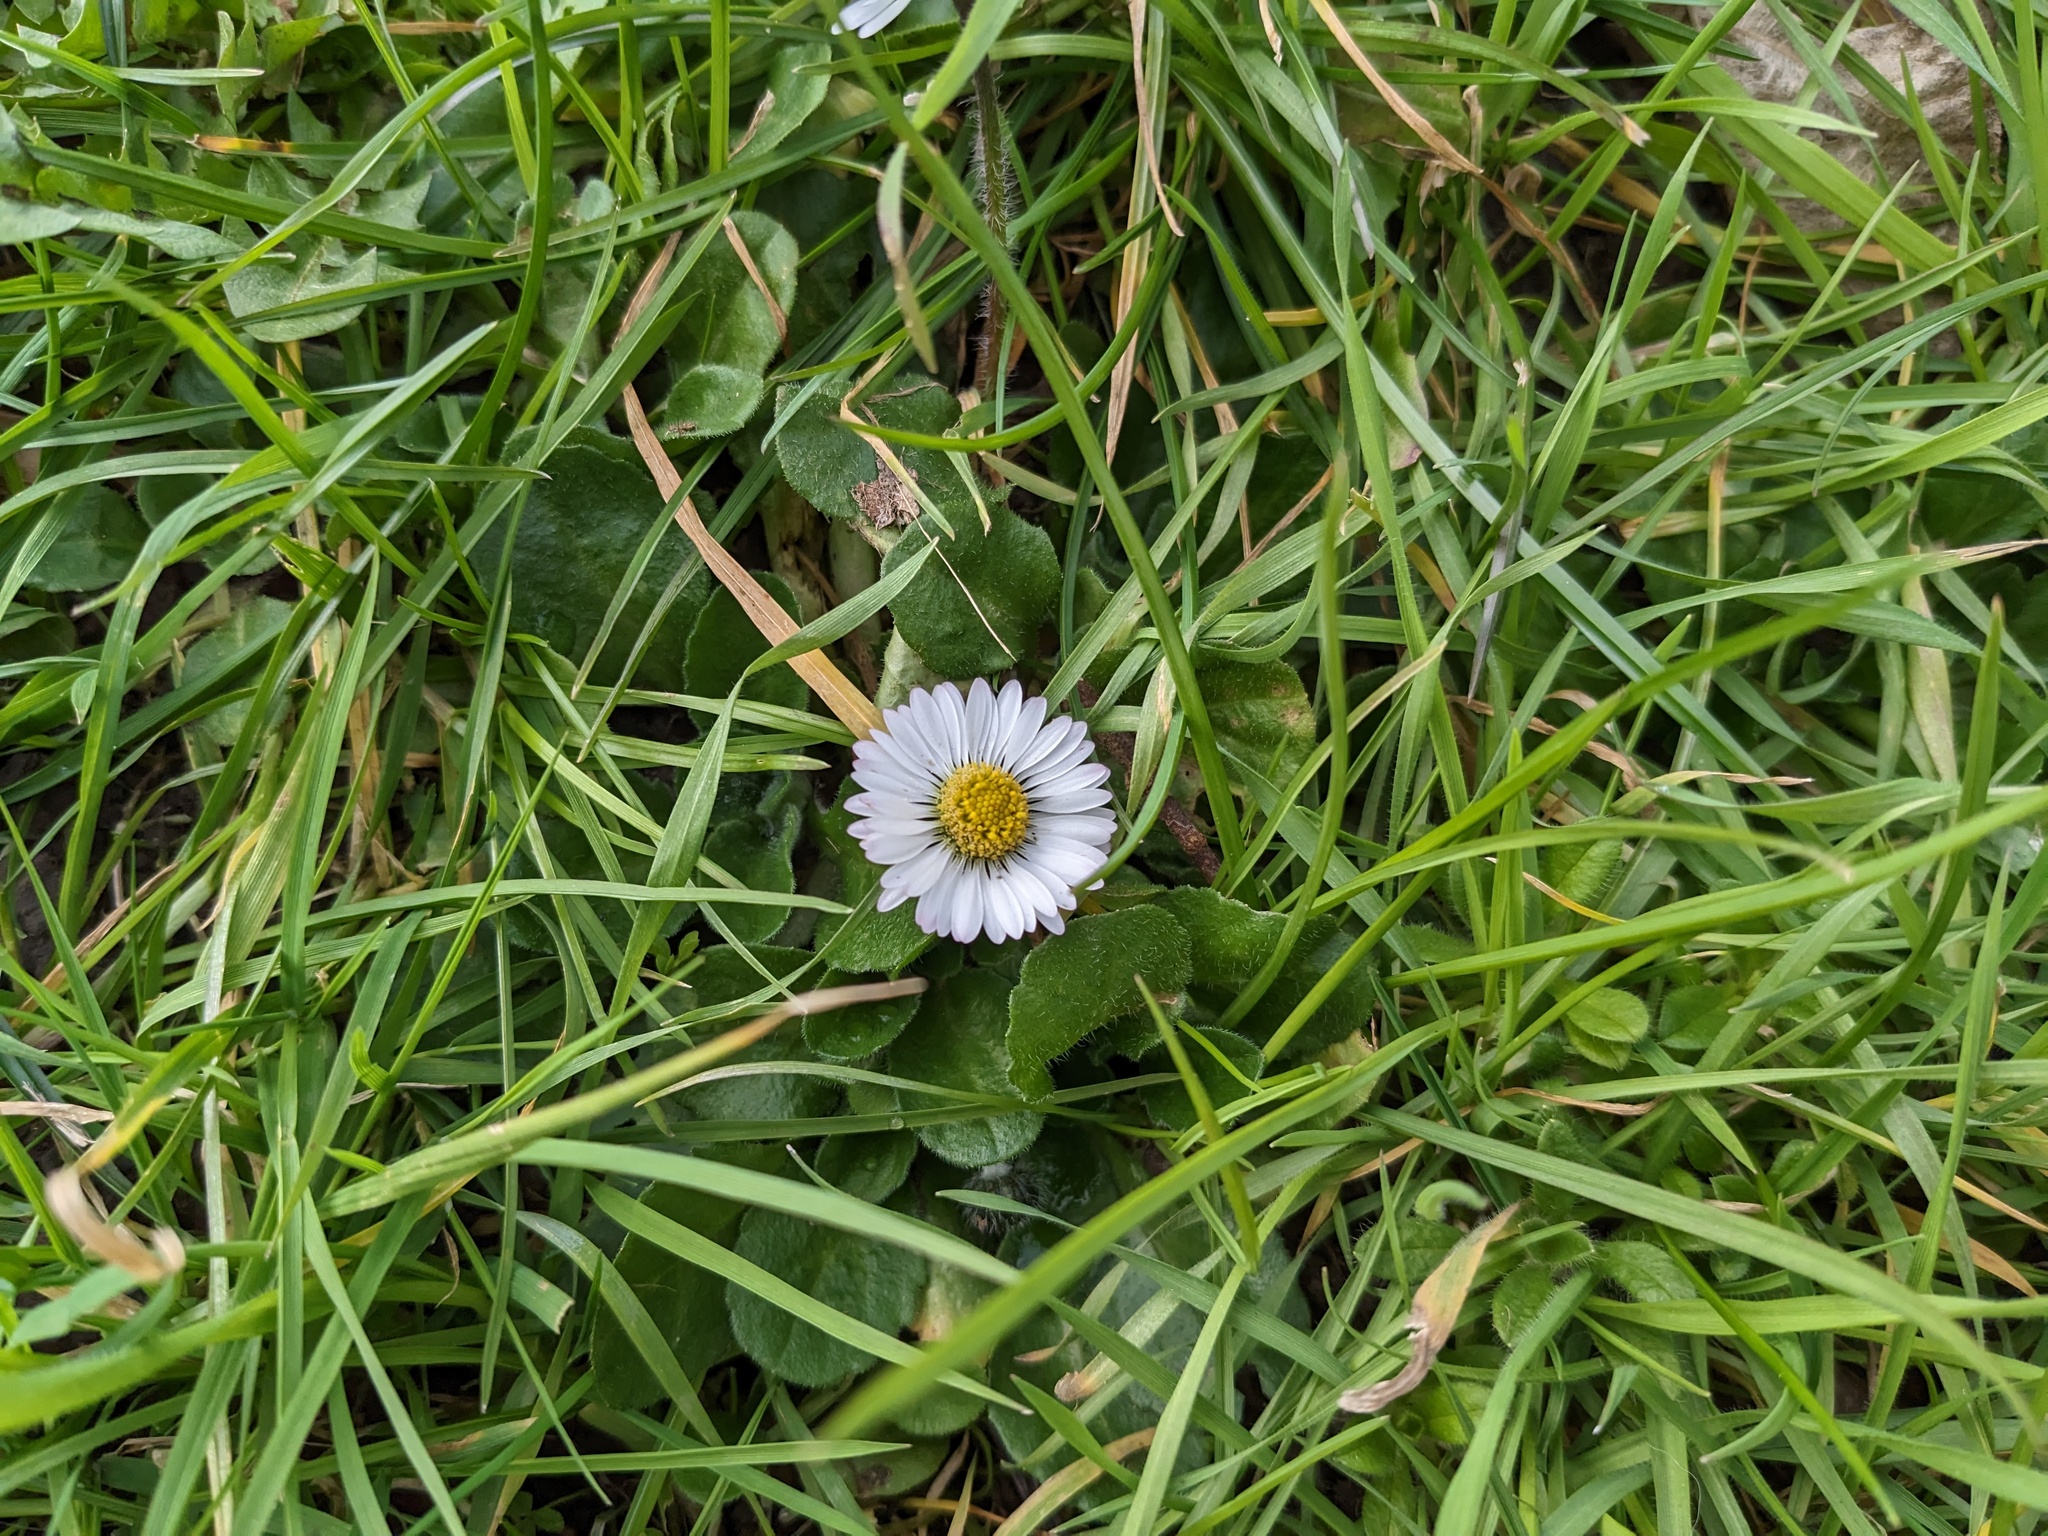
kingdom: Plantae
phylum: Tracheophyta
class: Magnoliopsida
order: Asterales
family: Asteraceae
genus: Bellis
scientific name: Bellis perennis
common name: Lawndaisy
